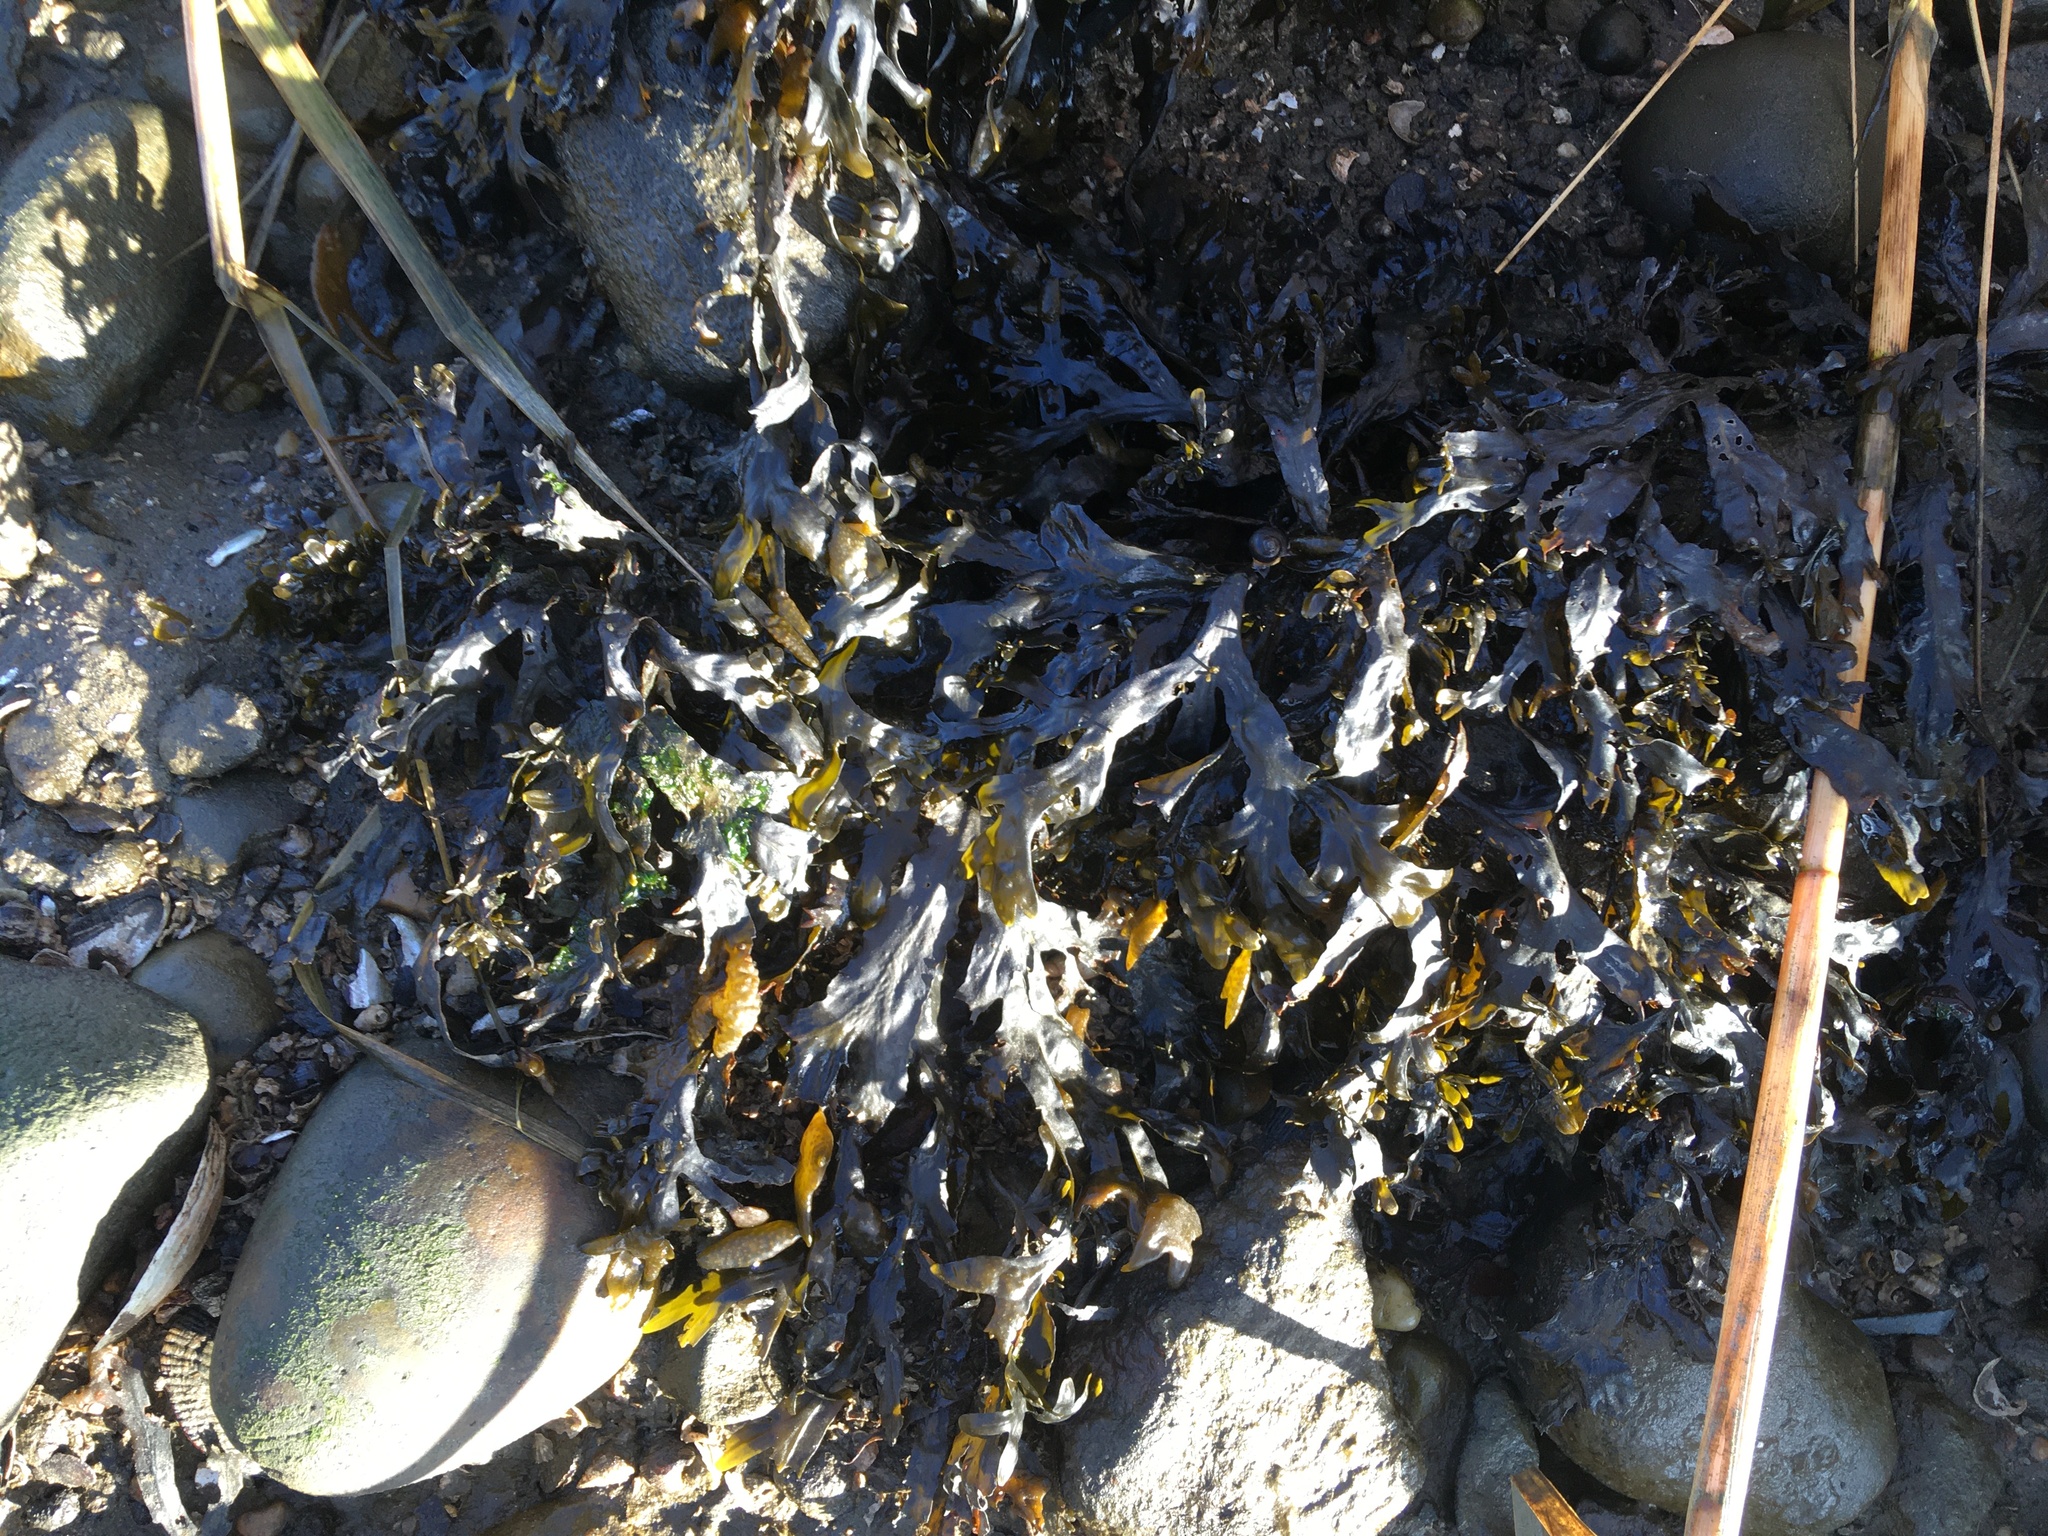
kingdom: Chromista
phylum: Ochrophyta
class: Phaeophyceae
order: Fucales
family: Fucaceae
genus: Fucus
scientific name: Fucus vesiculosus
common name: Bladder wrack
